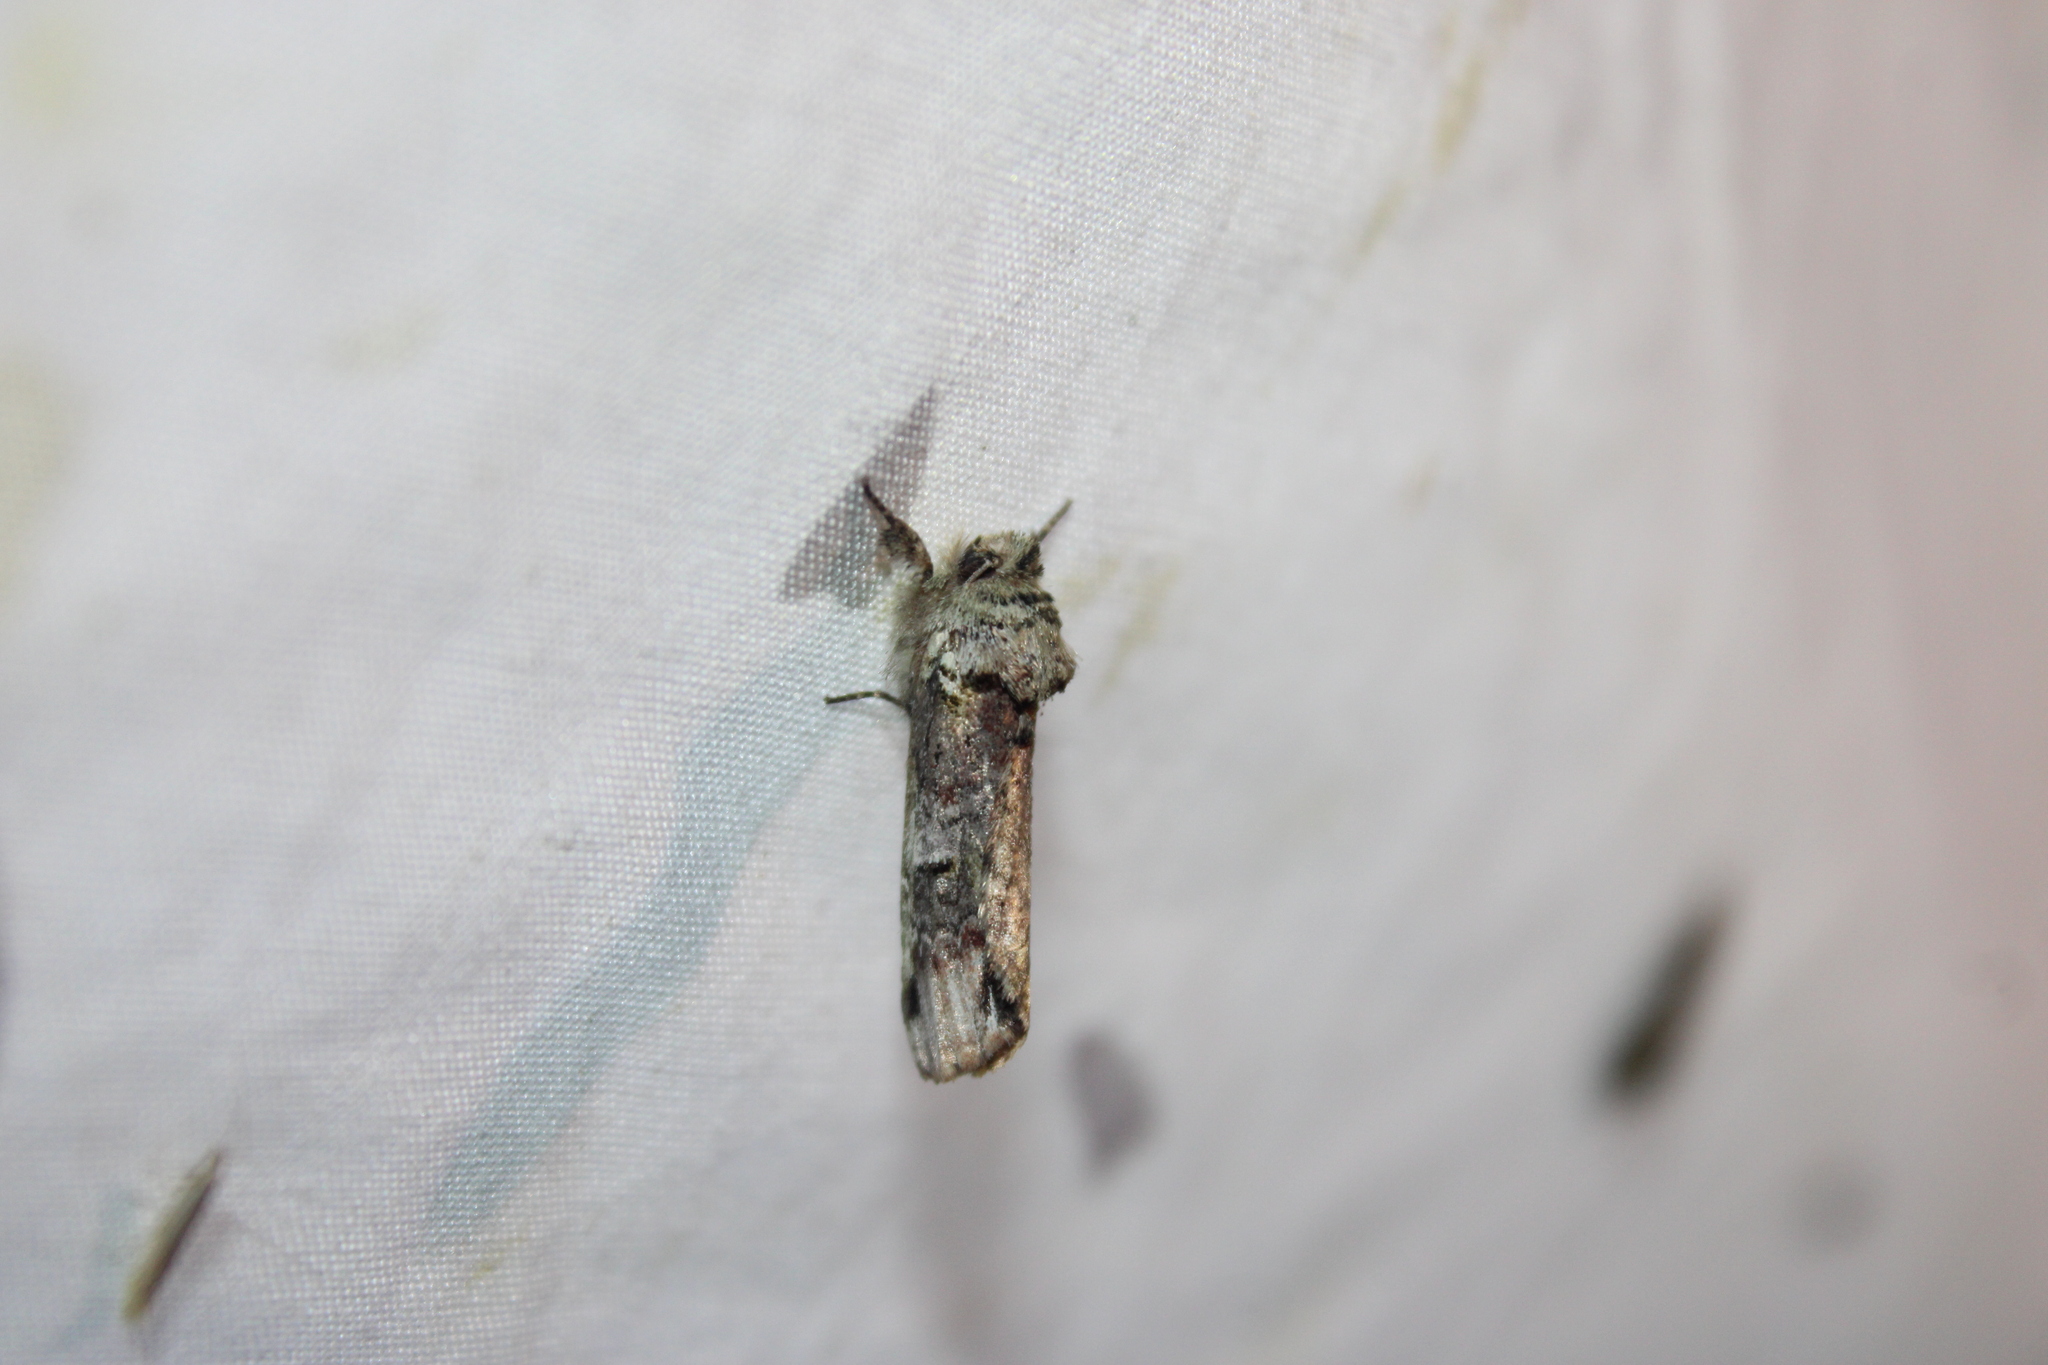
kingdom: Animalia
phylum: Arthropoda
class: Insecta
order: Lepidoptera
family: Notodontidae
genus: Schizura
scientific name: Schizura
